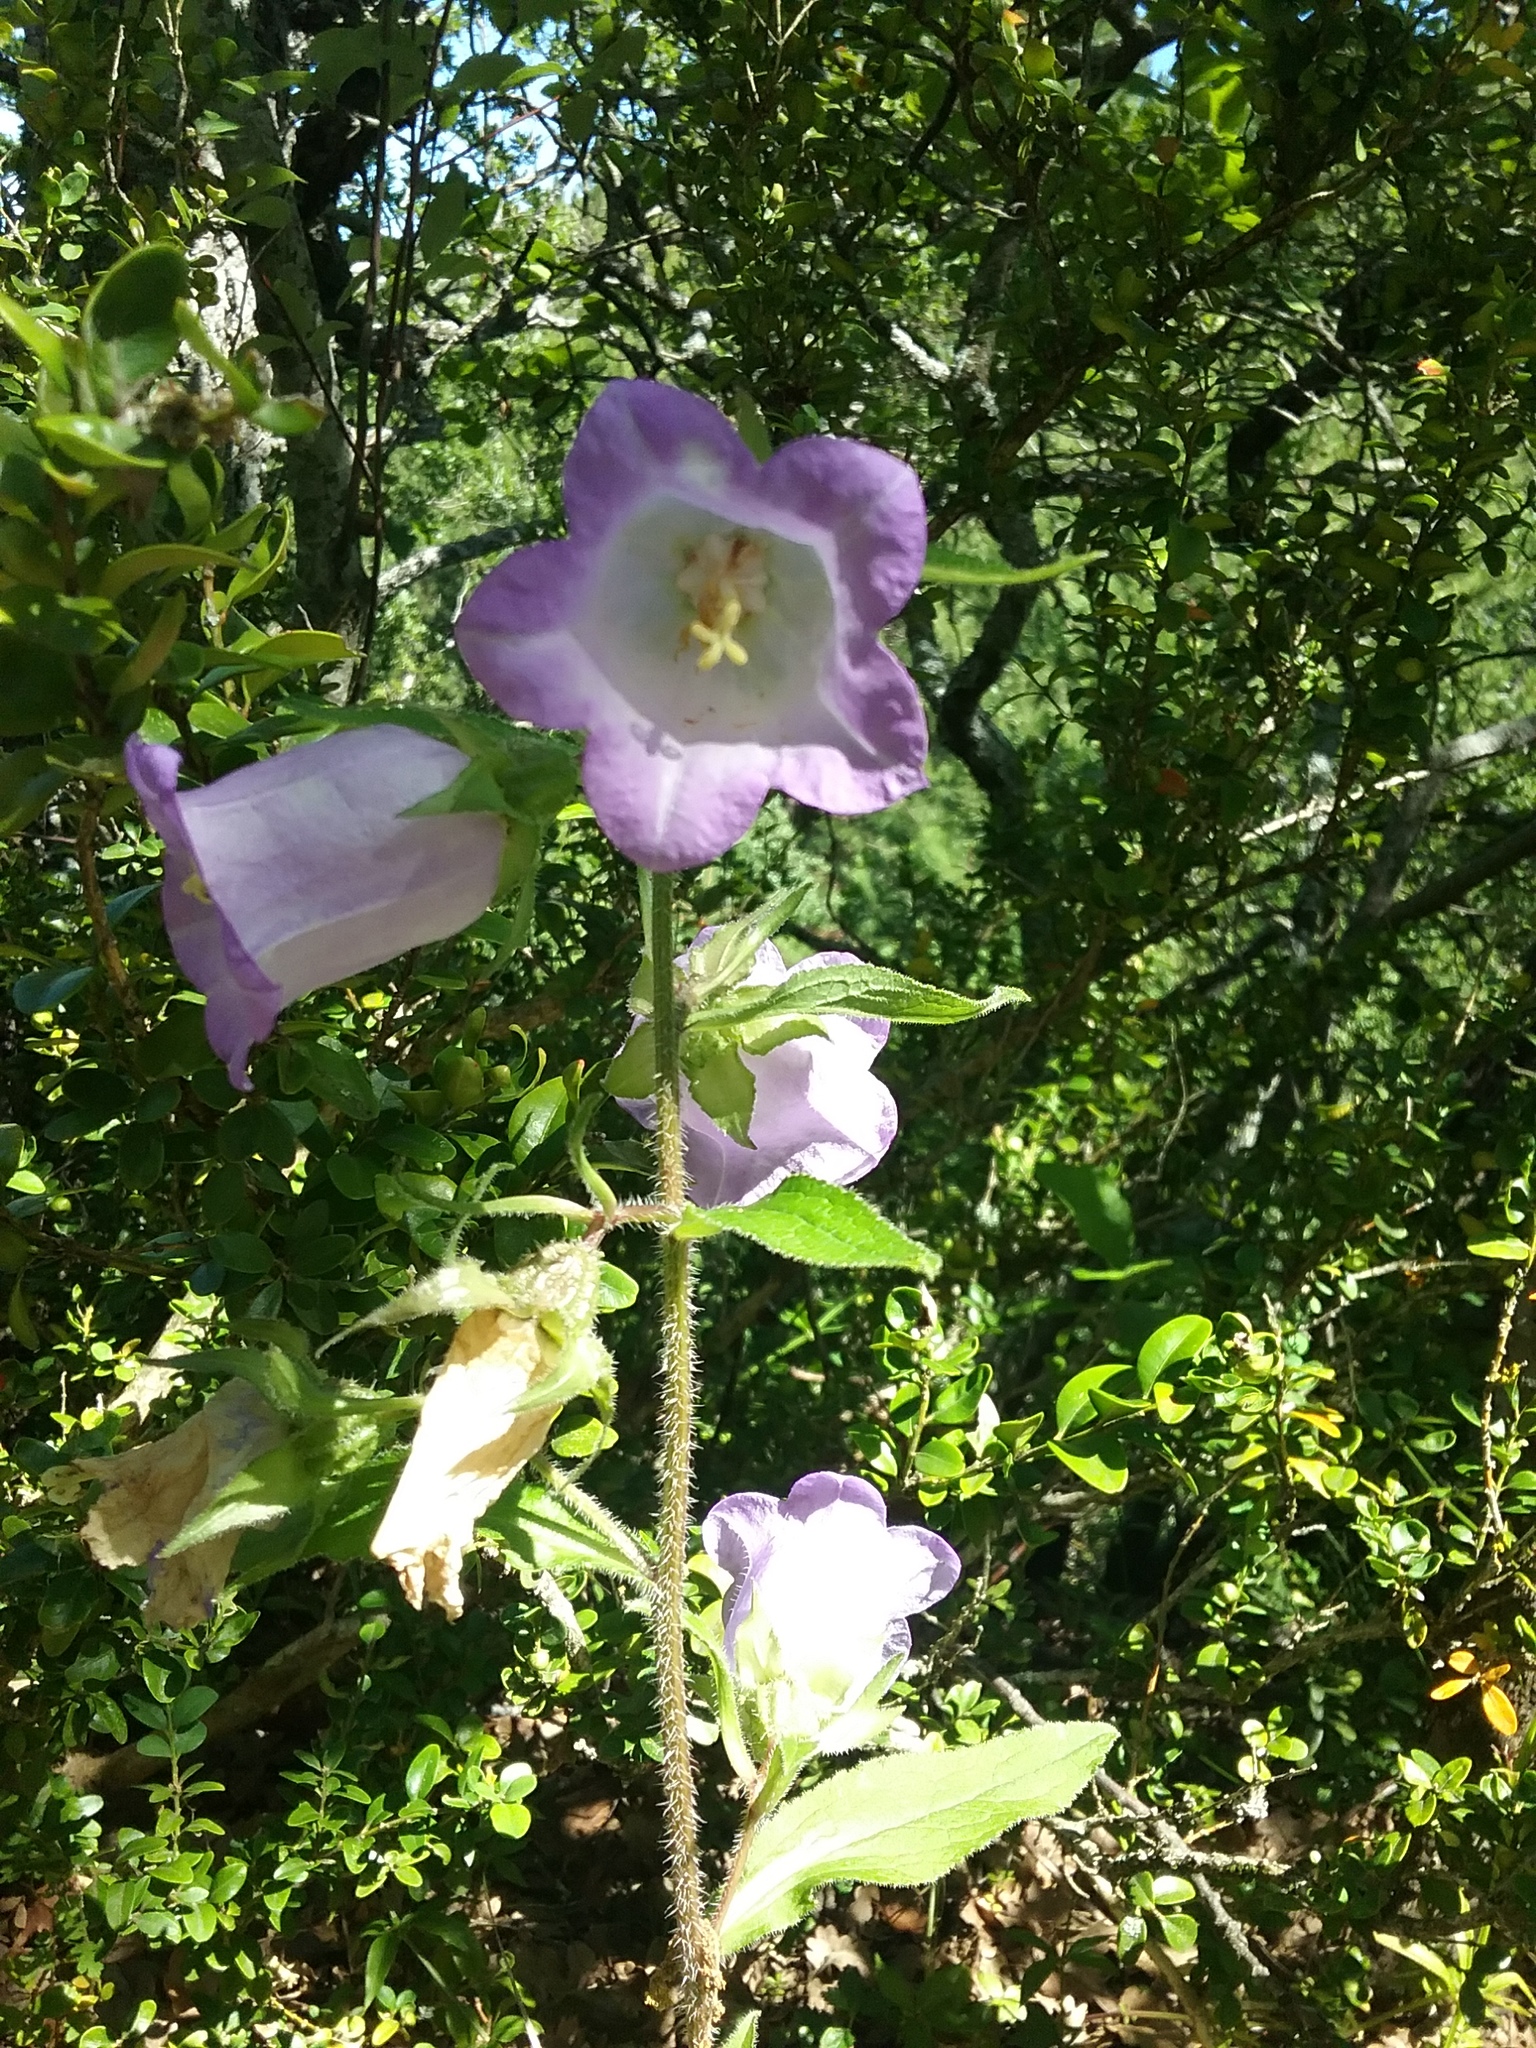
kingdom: Plantae
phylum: Tracheophyta
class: Magnoliopsida
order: Asterales
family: Campanulaceae
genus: Campanula
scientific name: Campanula medium
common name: Canterbury bells
